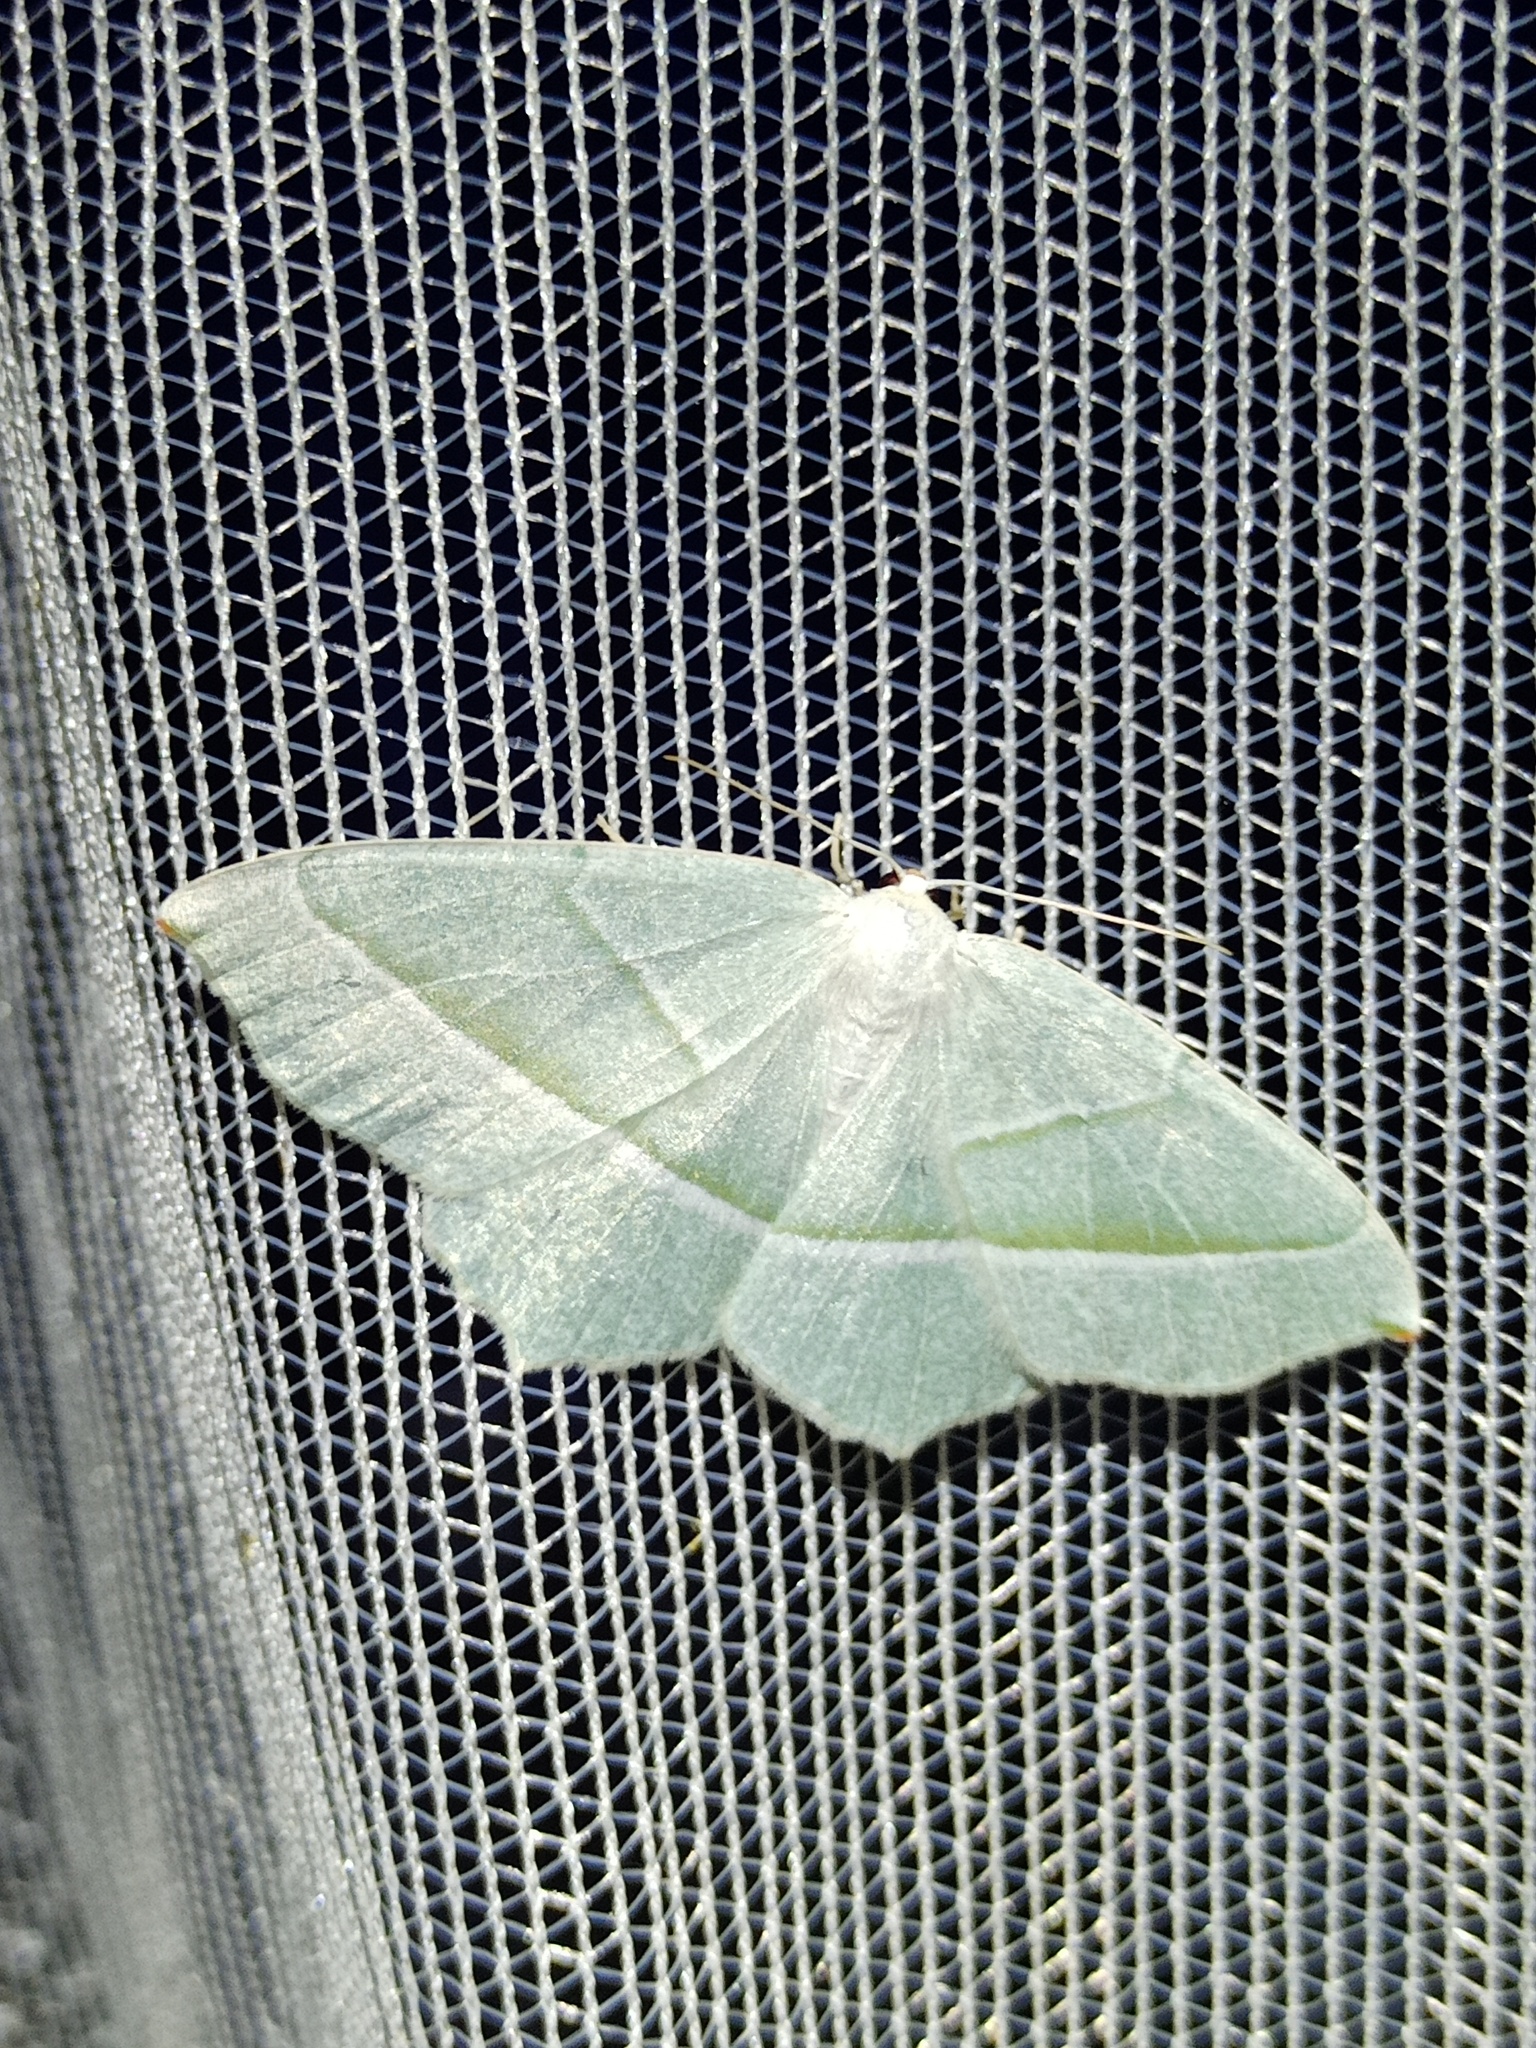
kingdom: Animalia
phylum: Arthropoda
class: Insecta
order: Lepidoptera
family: Geometridae
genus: Campaea
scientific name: Campaea margaritaria
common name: Light emerald
